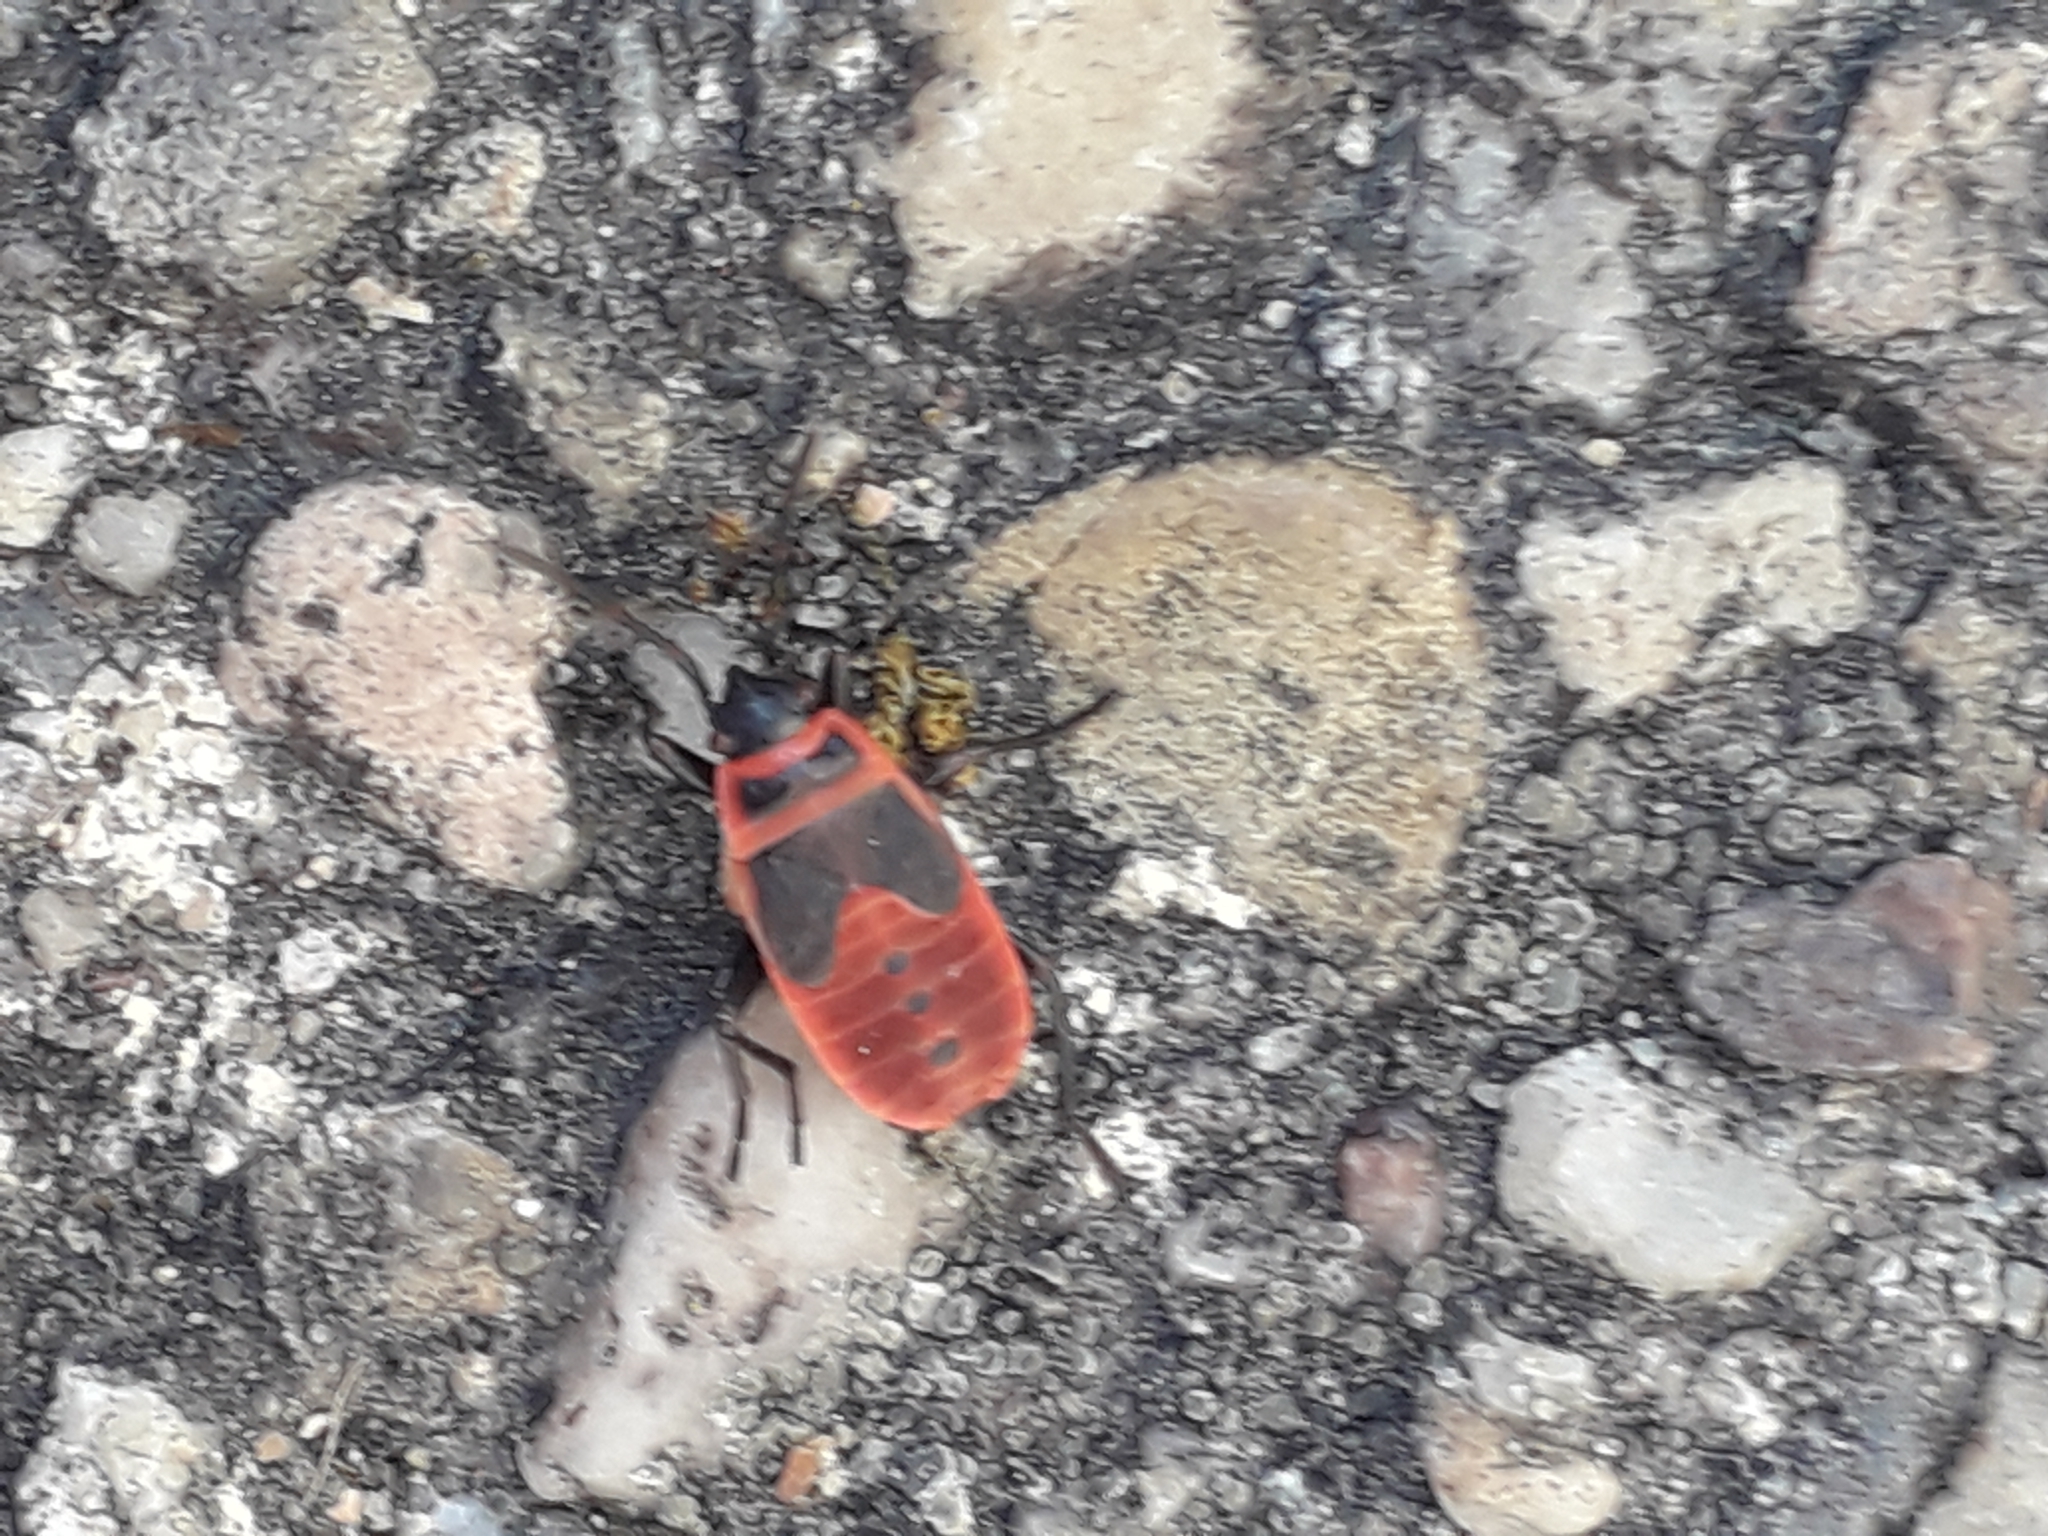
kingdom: Animalia
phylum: Arthropoda
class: Insecta
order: Hemiptera
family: Pyrrhocoridae
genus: Pyrrhocoris
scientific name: Pyrrhocoris apterus
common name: Firebug
